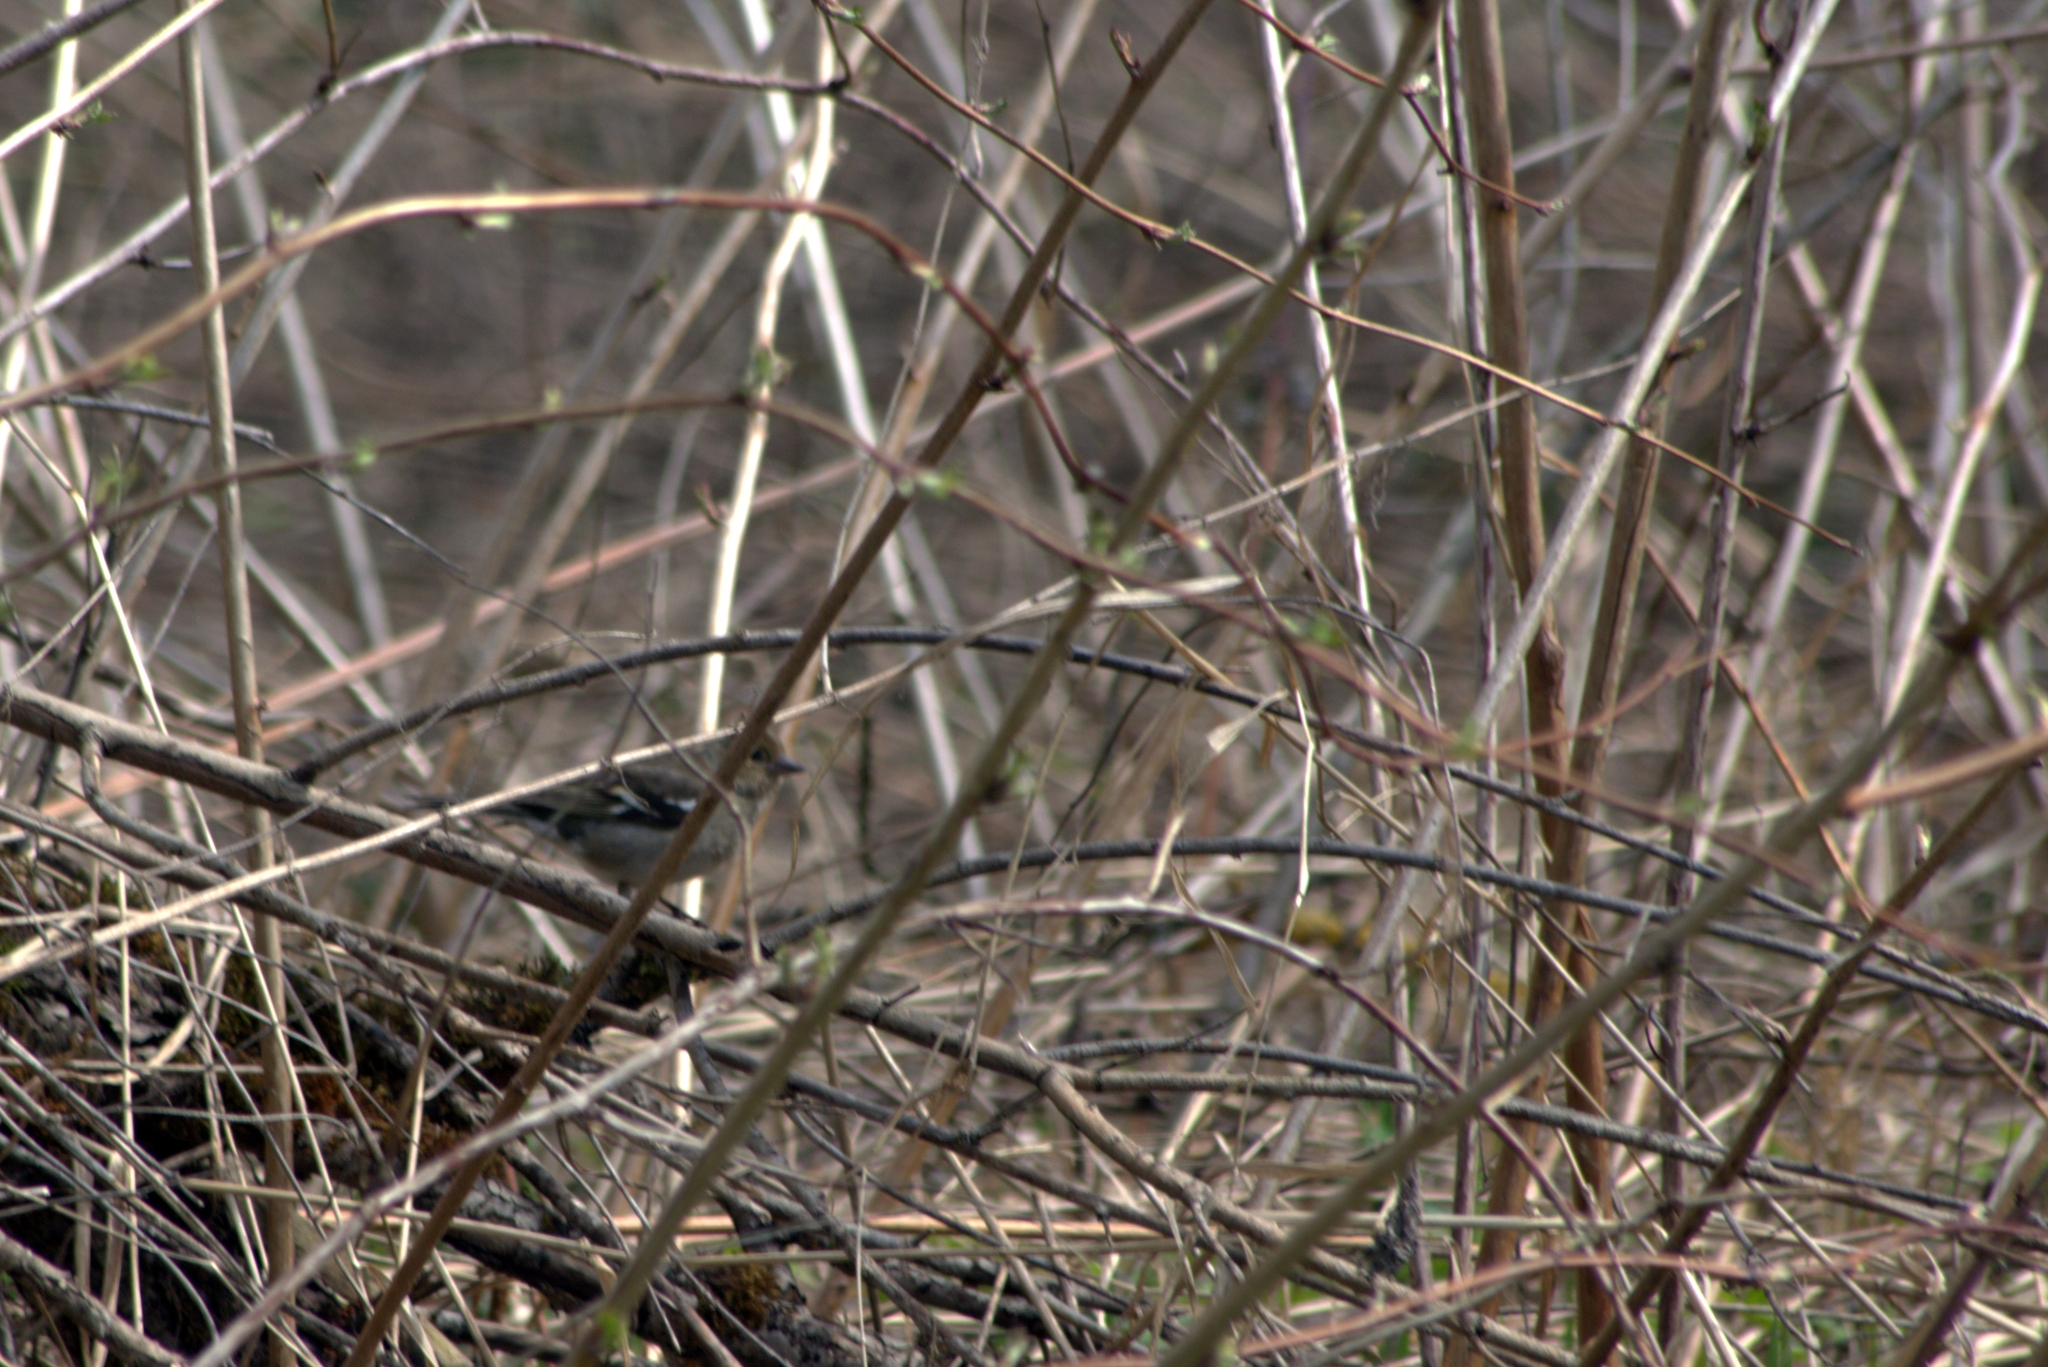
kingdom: Animalia
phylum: Chordata
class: Aves
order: Passeriformes
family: Fringillidae
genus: Fringilla
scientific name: Fringilla coelebs
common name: Common chaffinch
